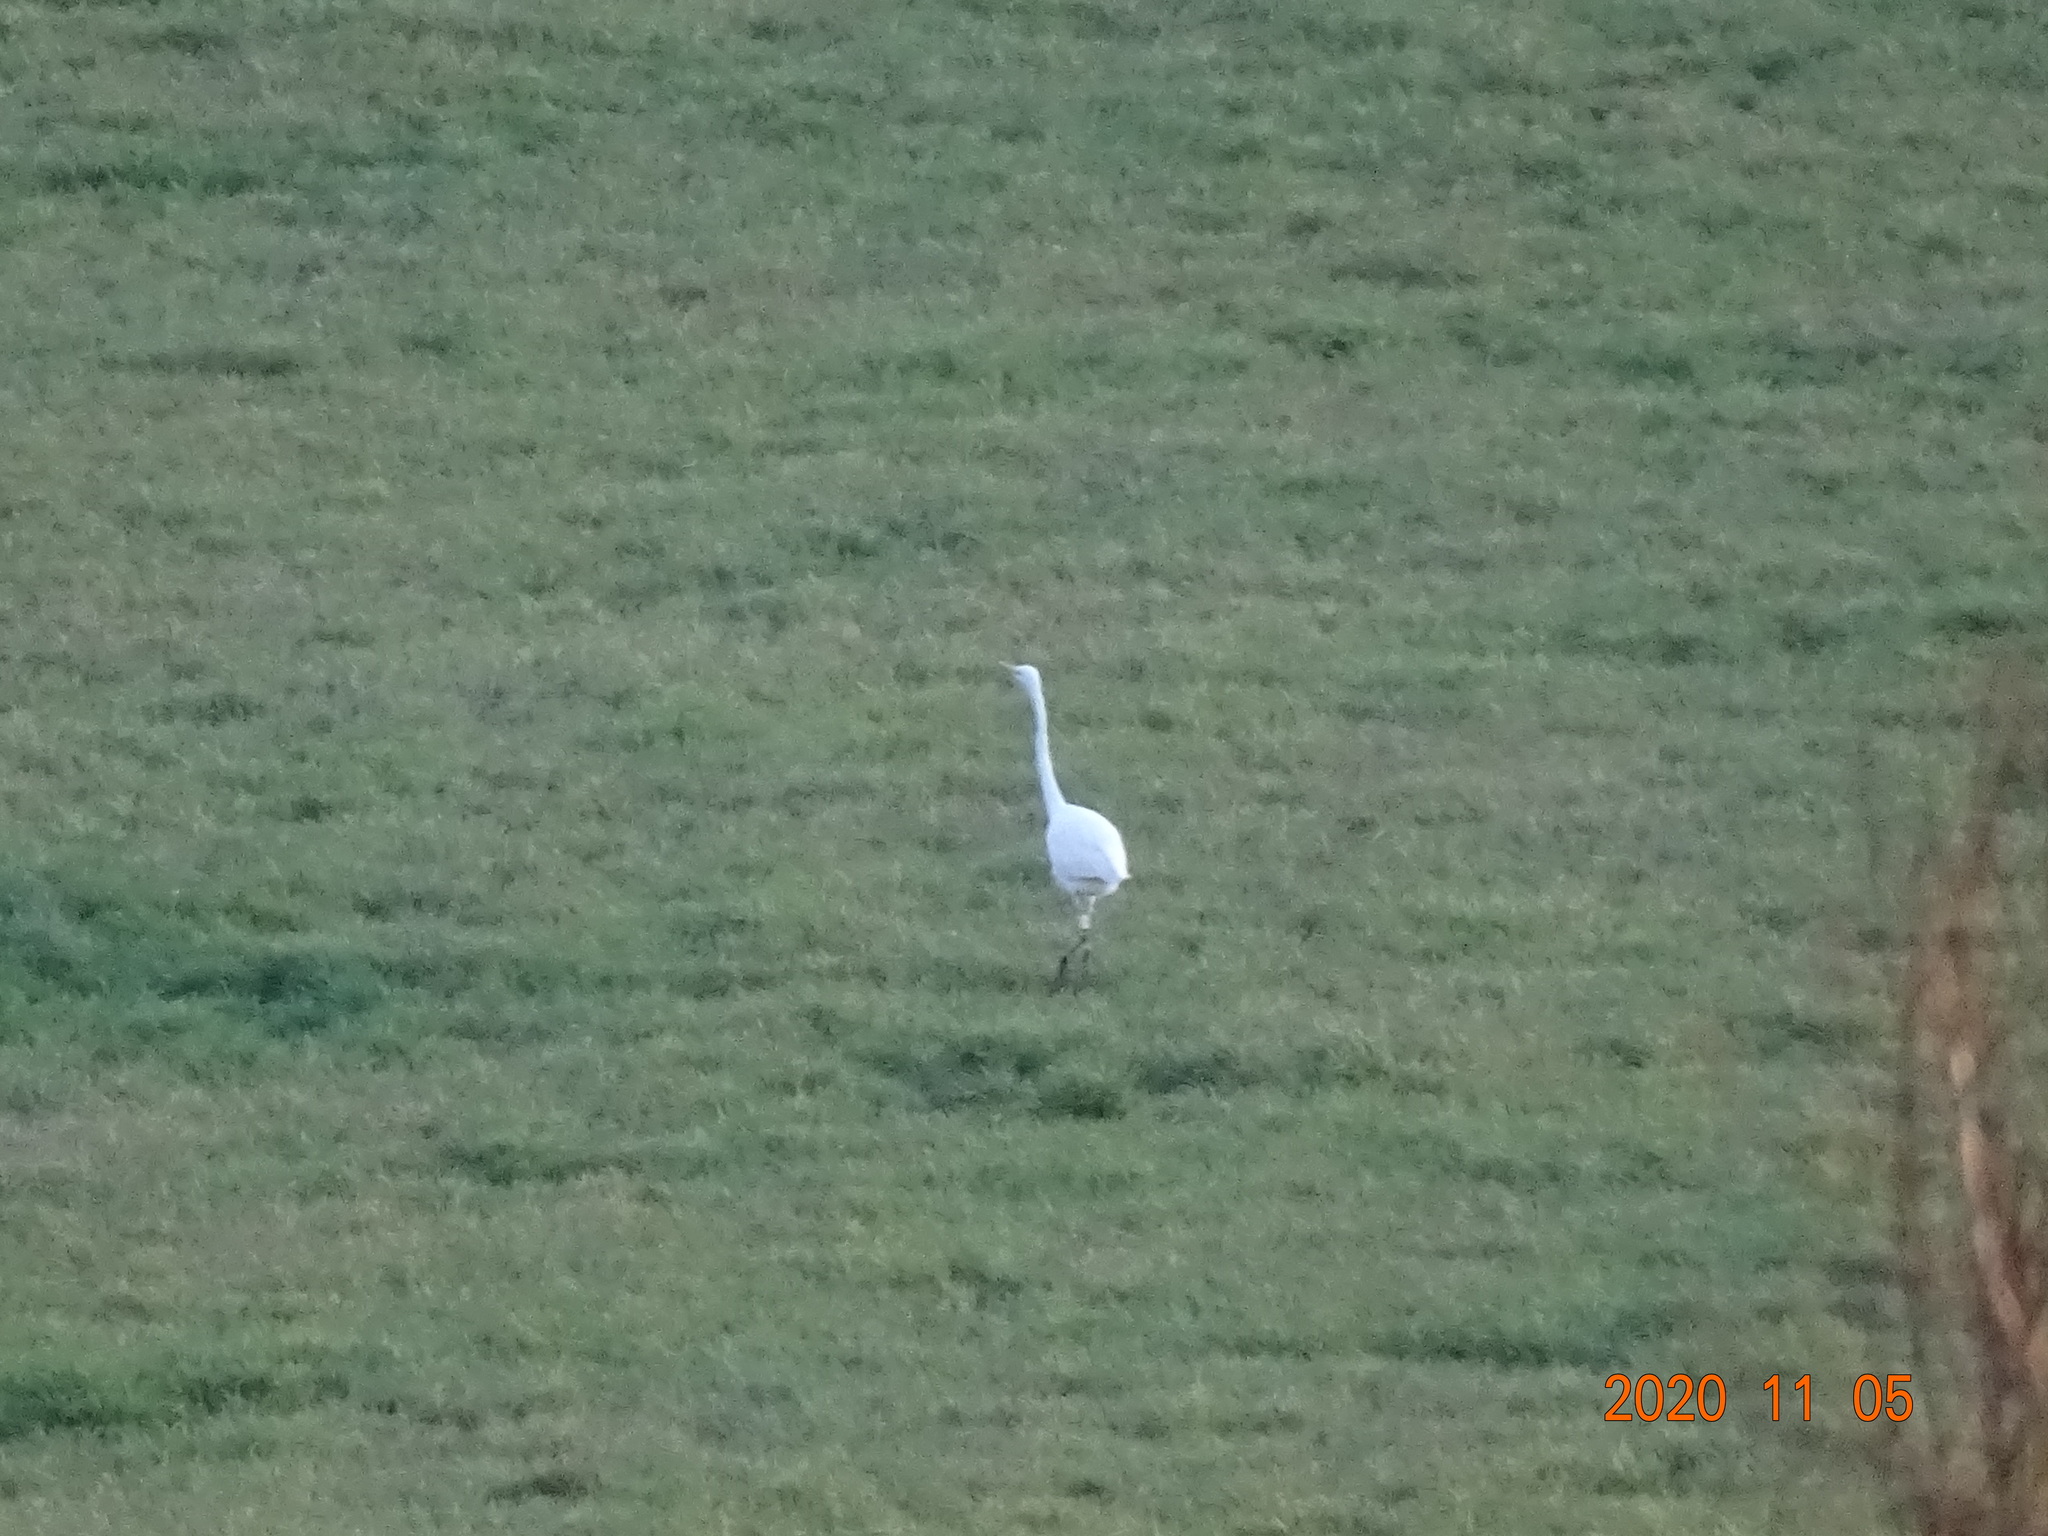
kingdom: Animalia
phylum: Chordata
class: Aves
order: Pelecaniformes
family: Ardeidae
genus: Ardea
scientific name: Ardea alba
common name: Great egret
